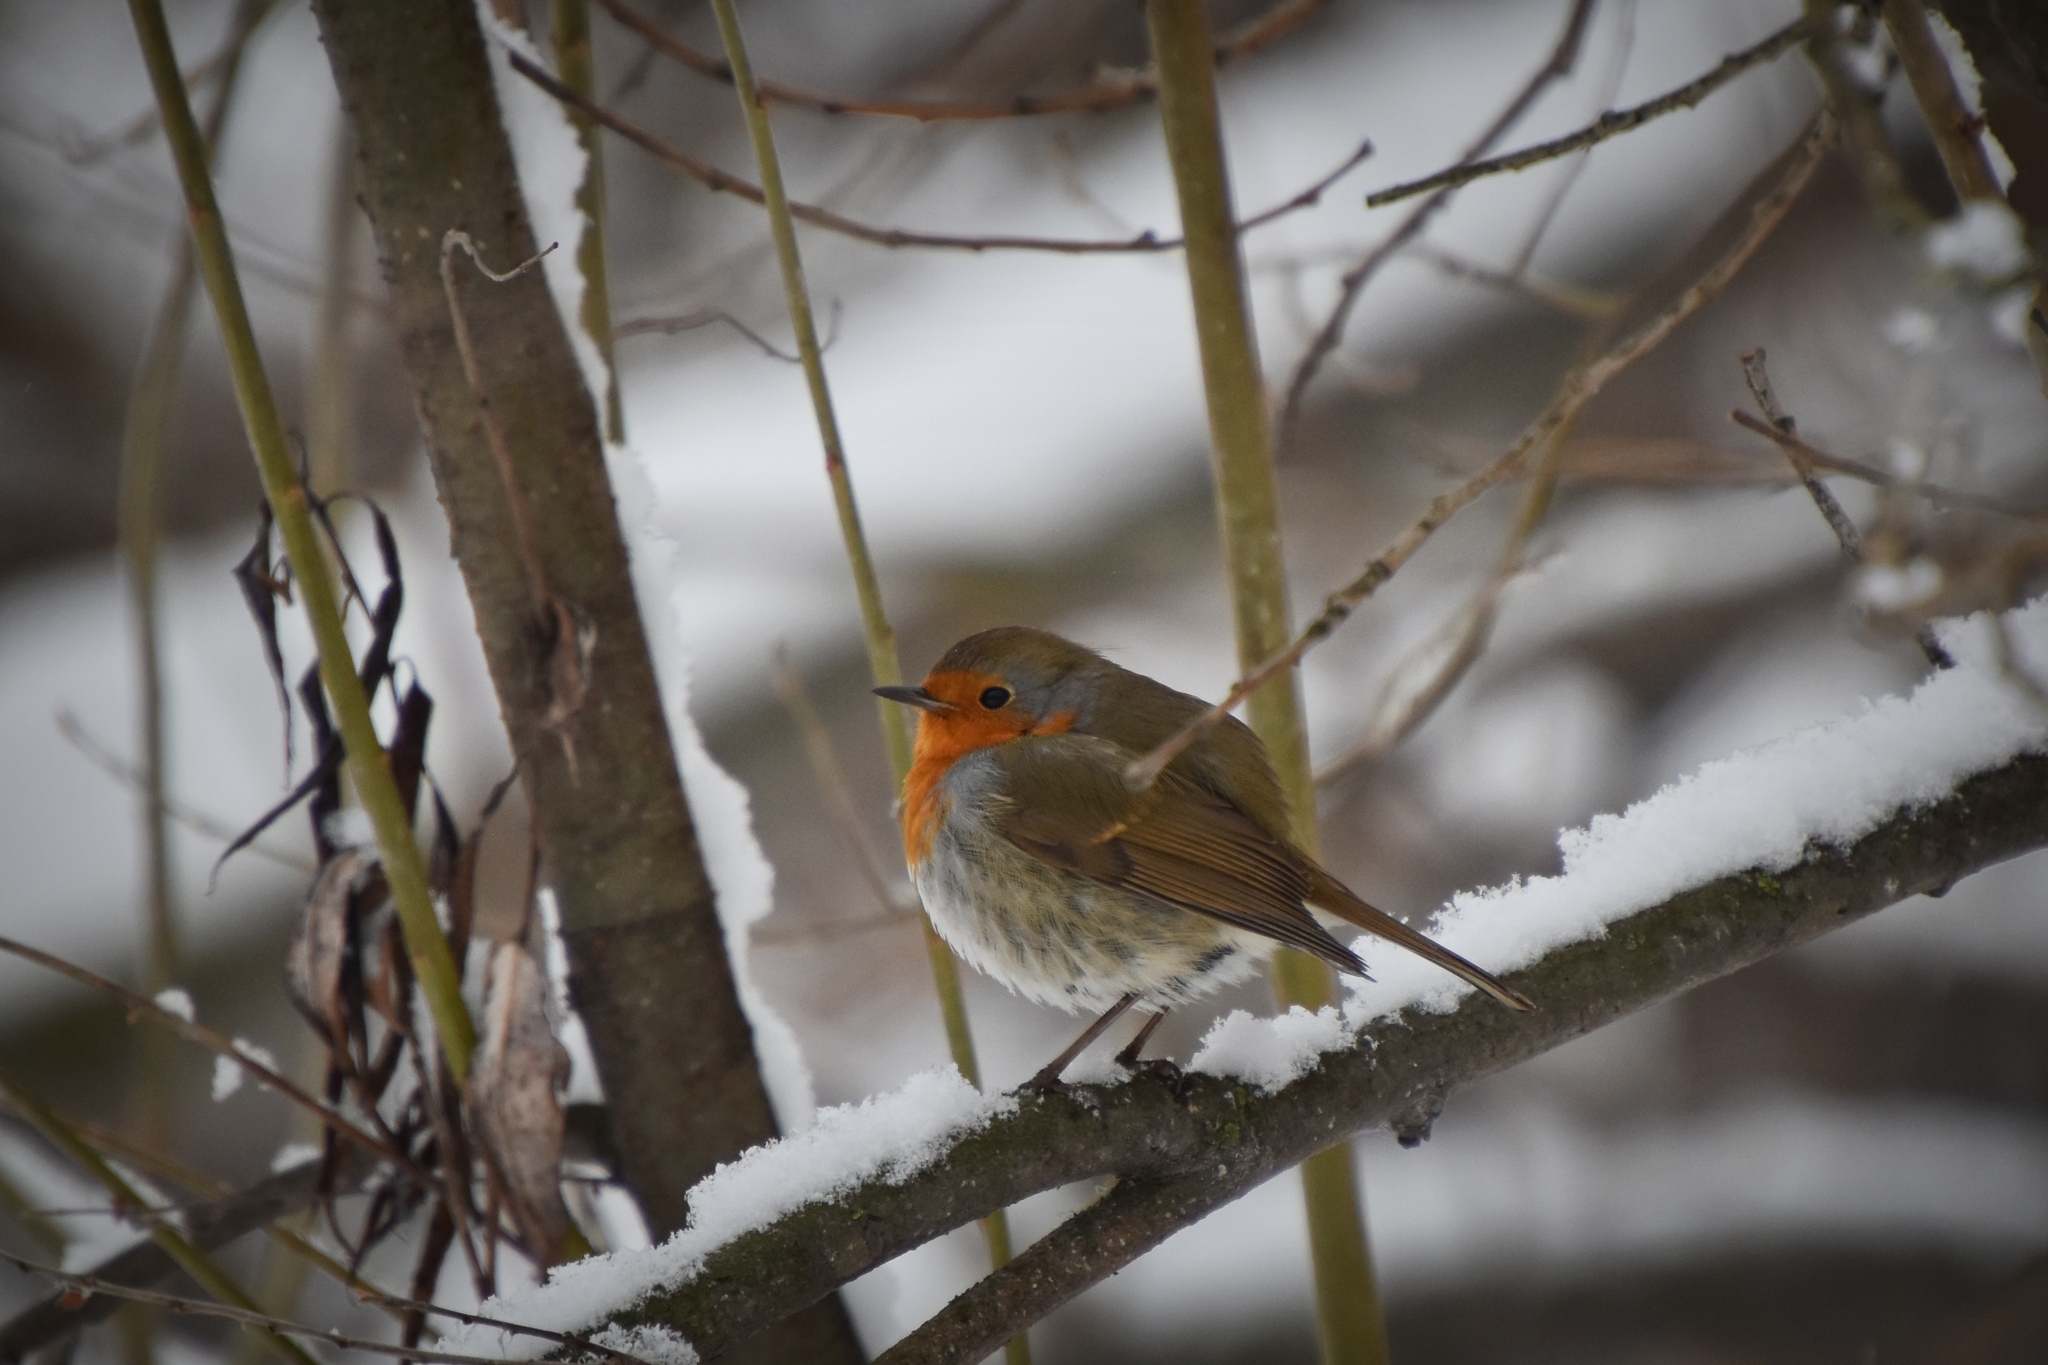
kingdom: Animalia
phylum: Chordata
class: Aves
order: Passeriformes
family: Muscicapidae
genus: Erithacus
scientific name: Erithacus rubecula
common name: European robin
